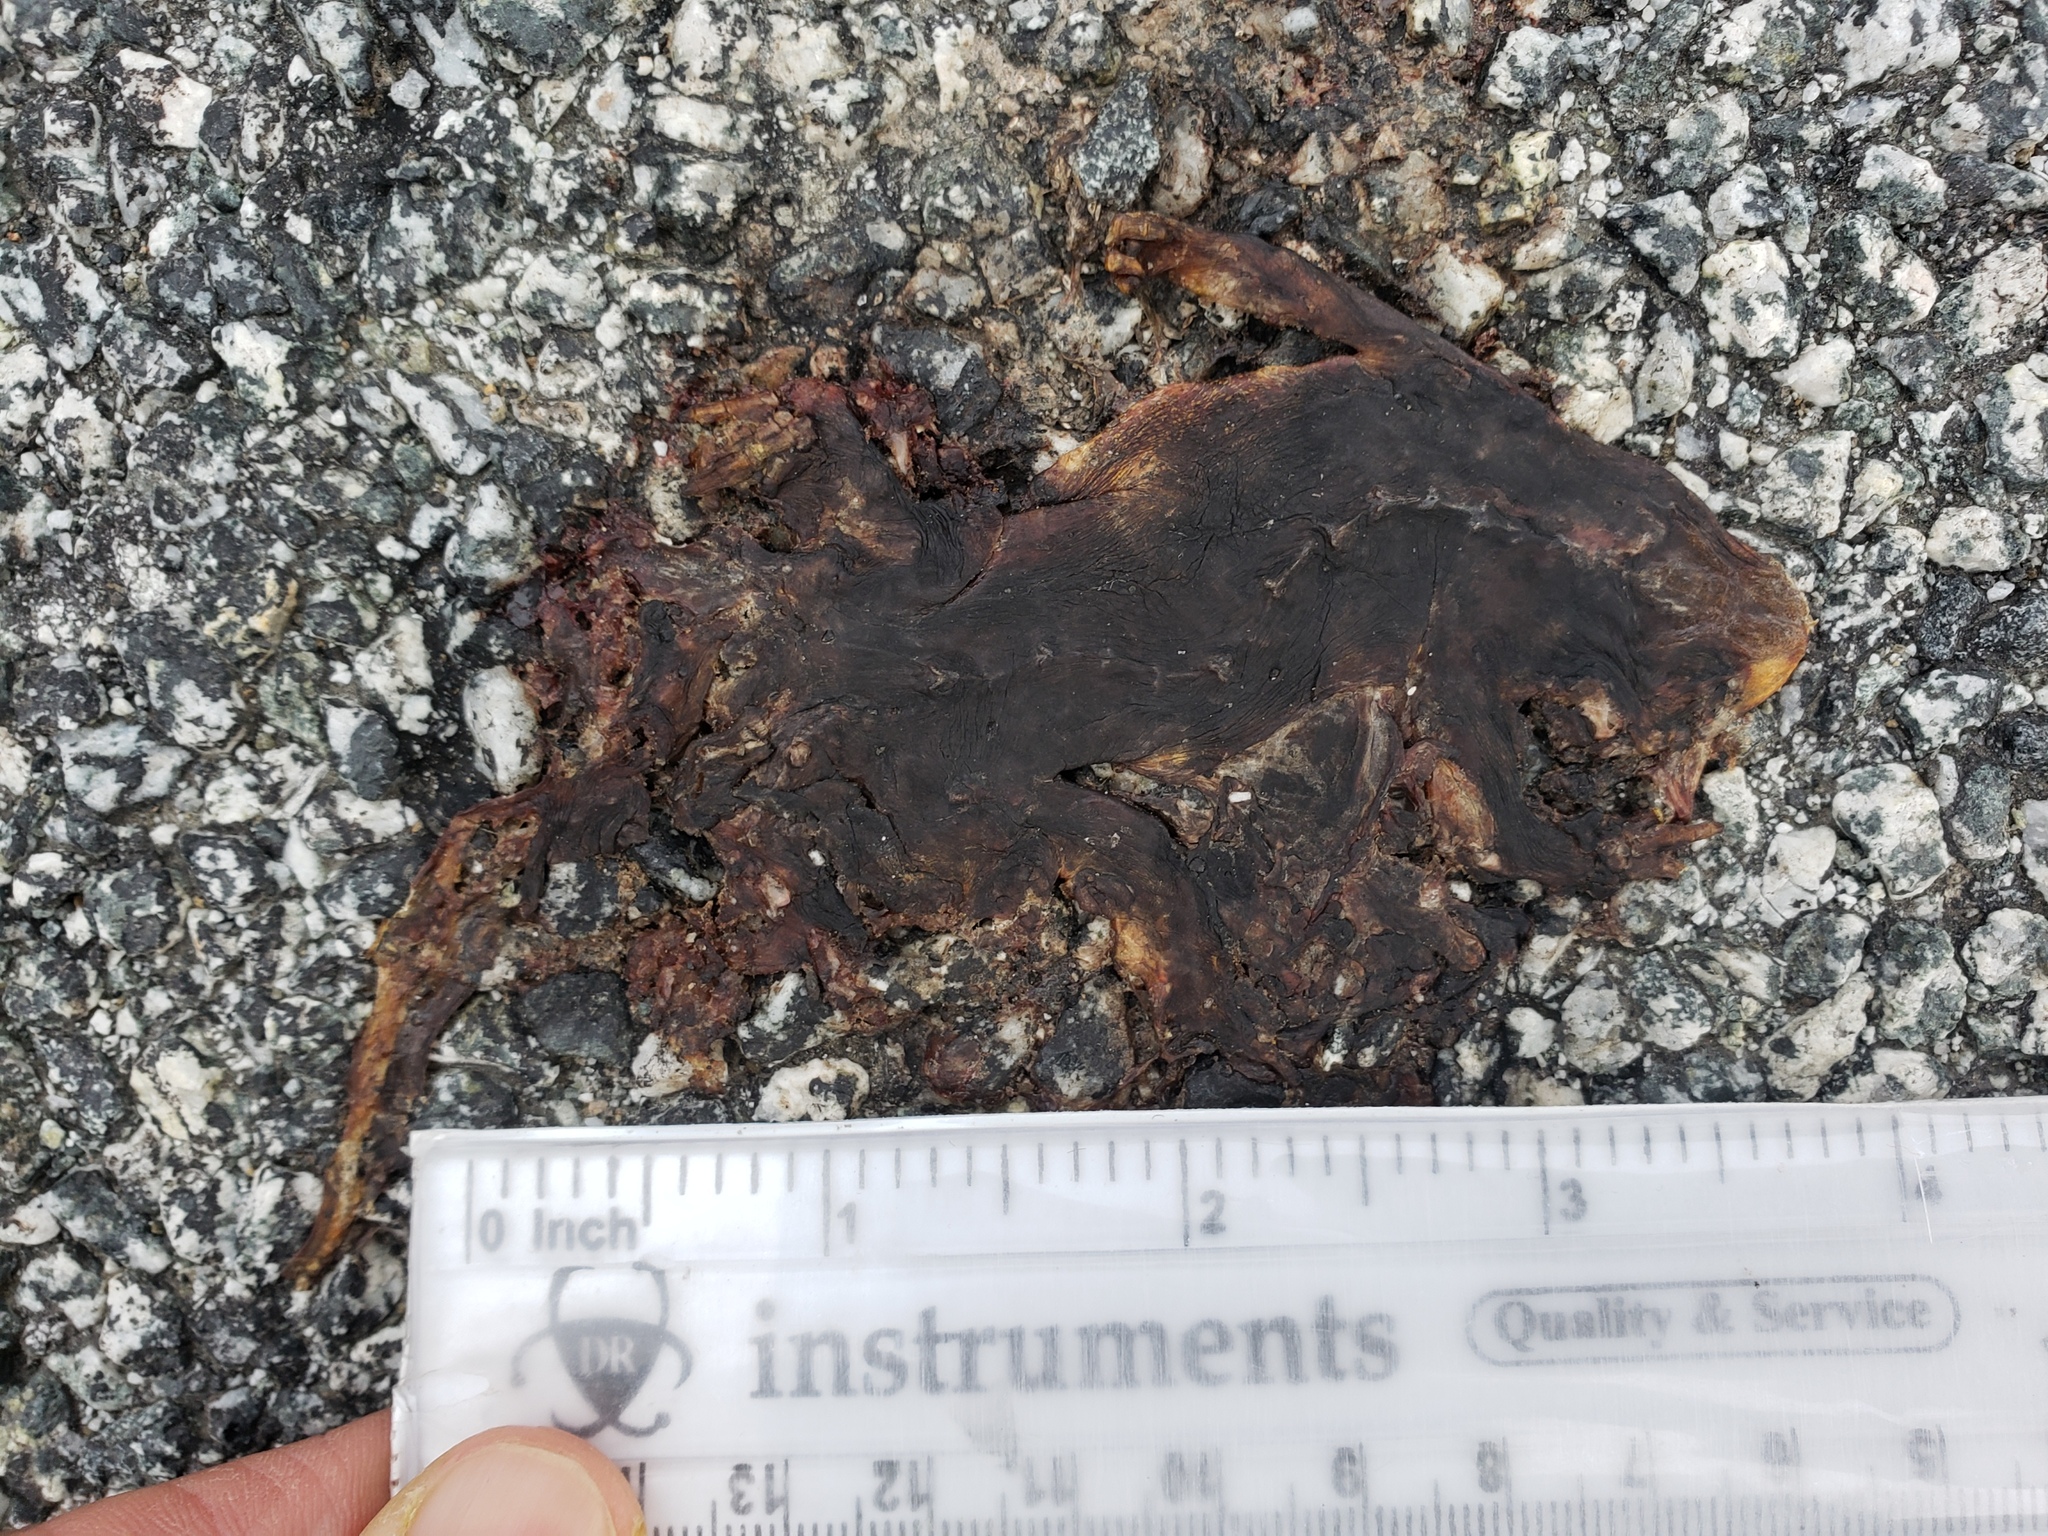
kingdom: Animalia
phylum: Chordata
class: Amphibia
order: Caudata
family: Salamandridae
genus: Taricha
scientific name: Taricha
